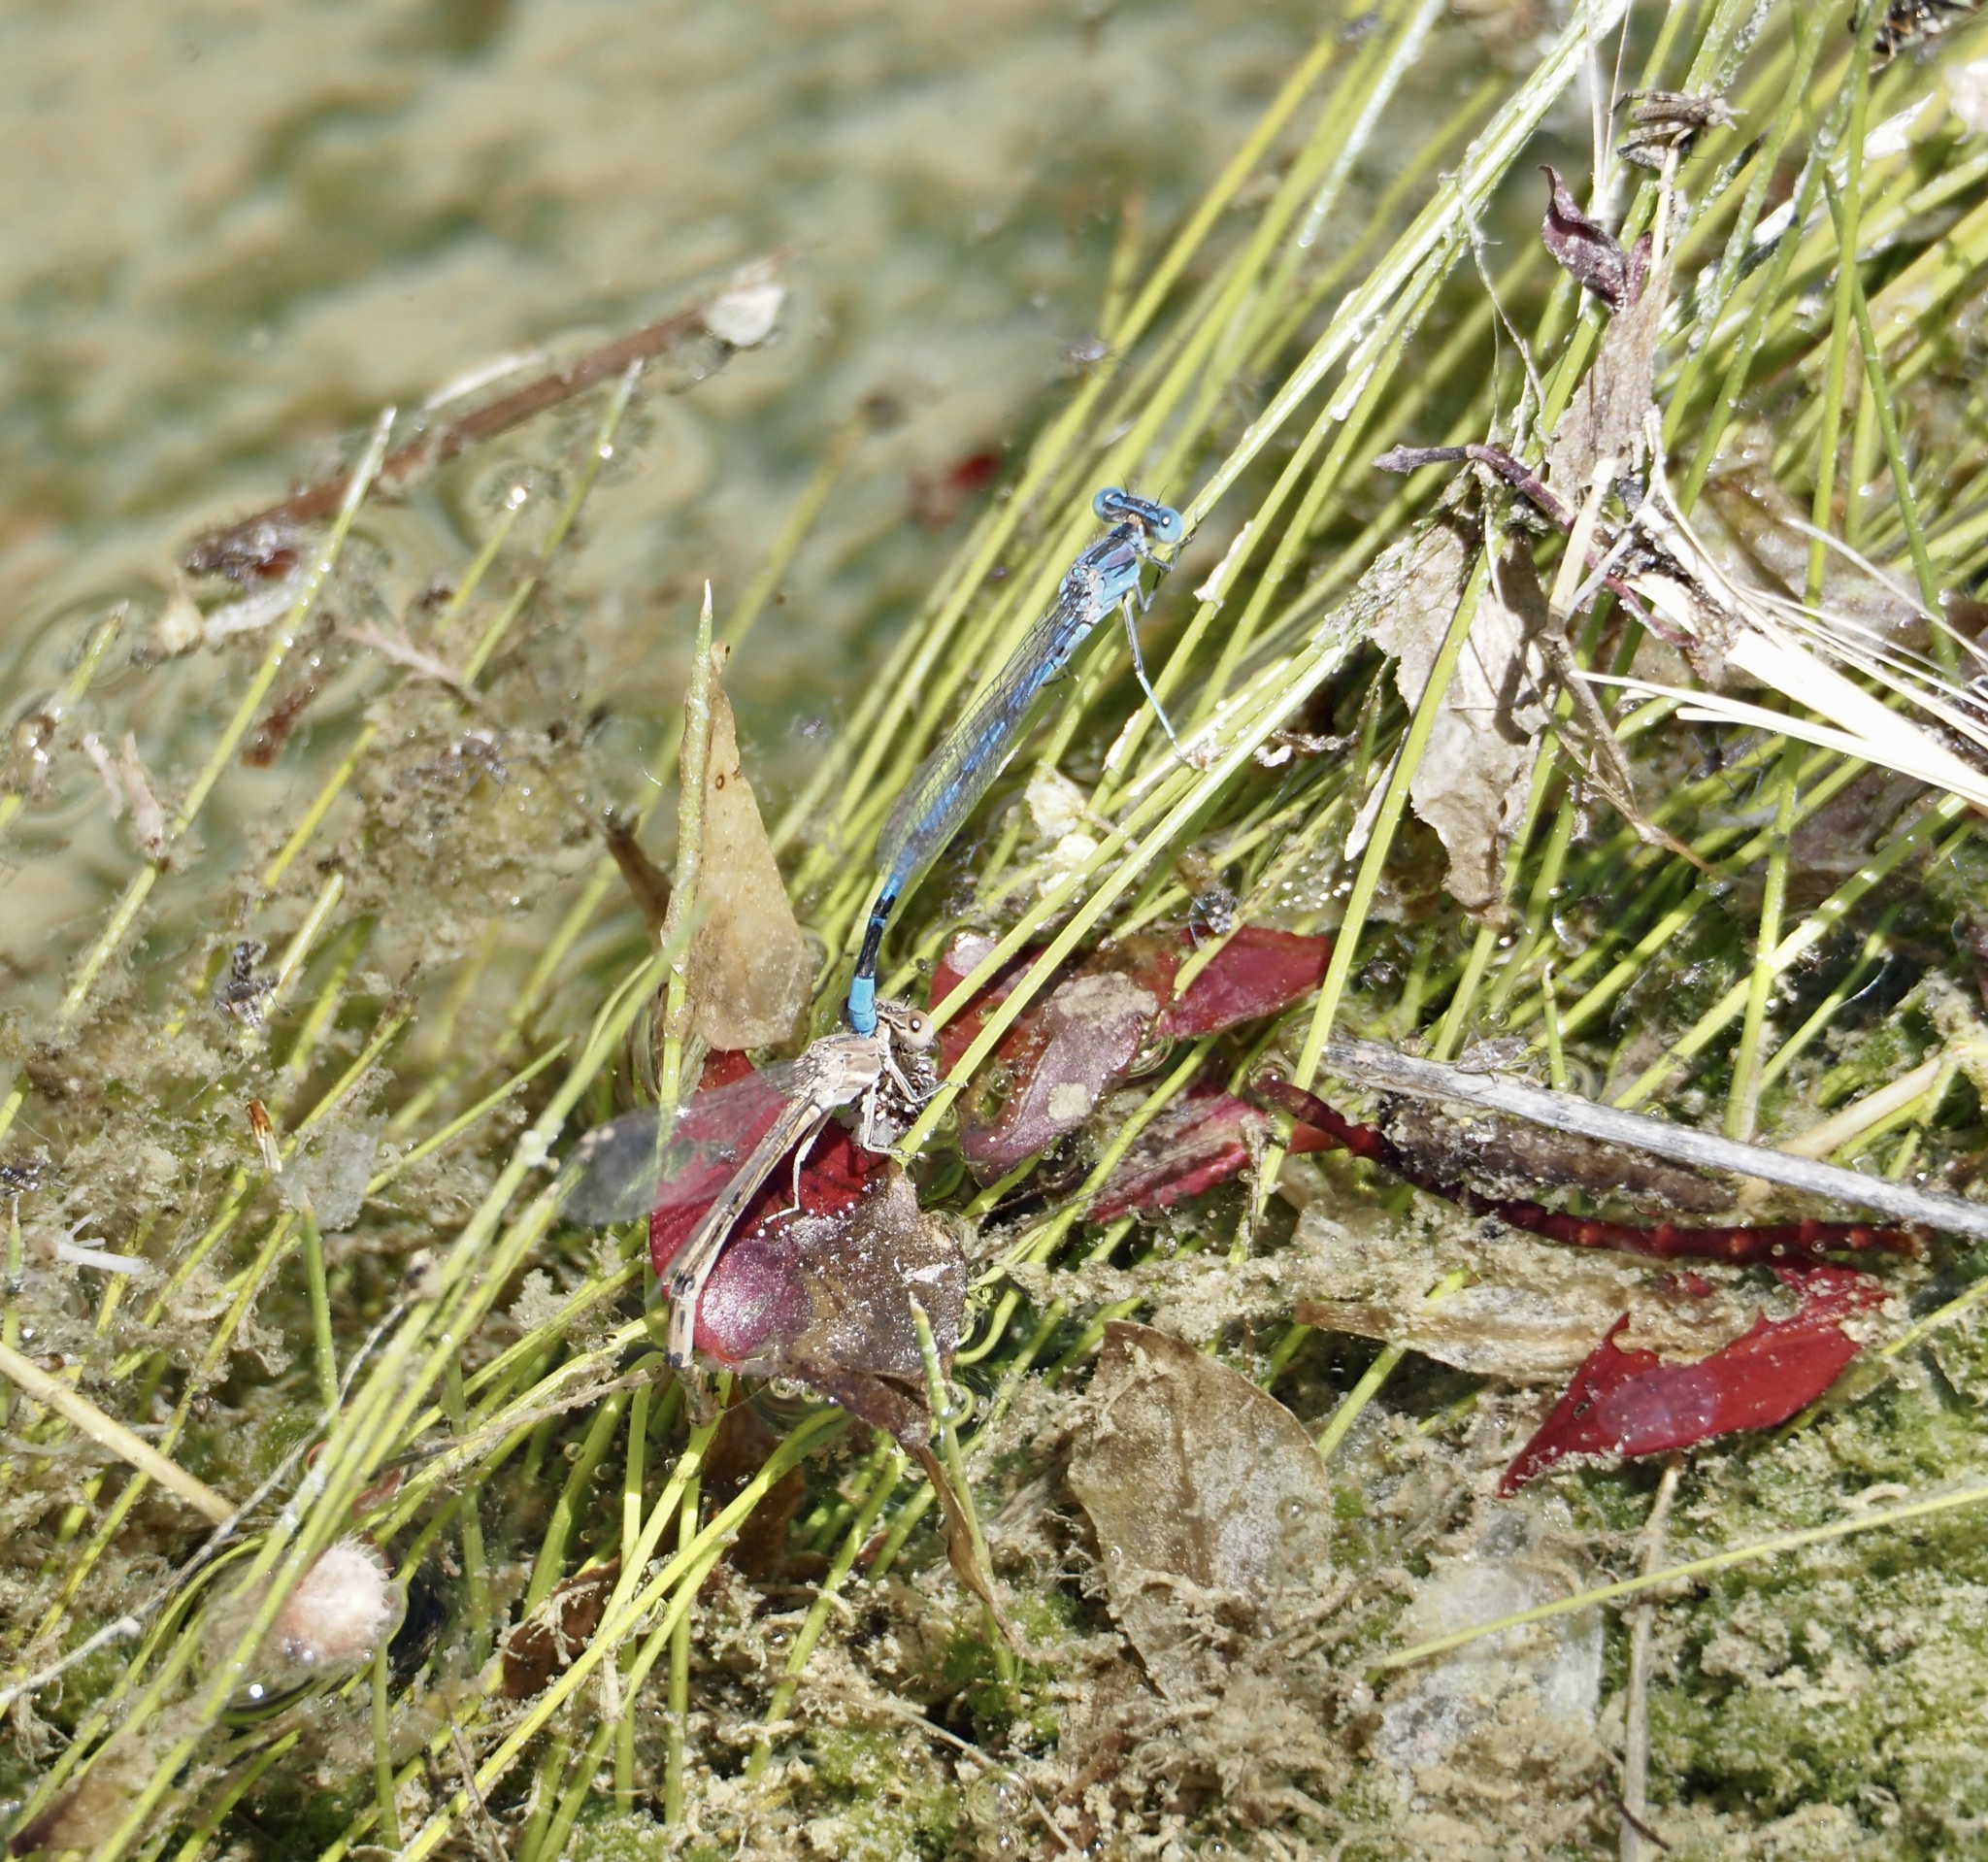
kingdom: Animalia
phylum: Arthropoda
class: Insecta
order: Odonata
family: Coenagrionidae
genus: Argia
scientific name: Argia nahuana
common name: Aztec dancer
